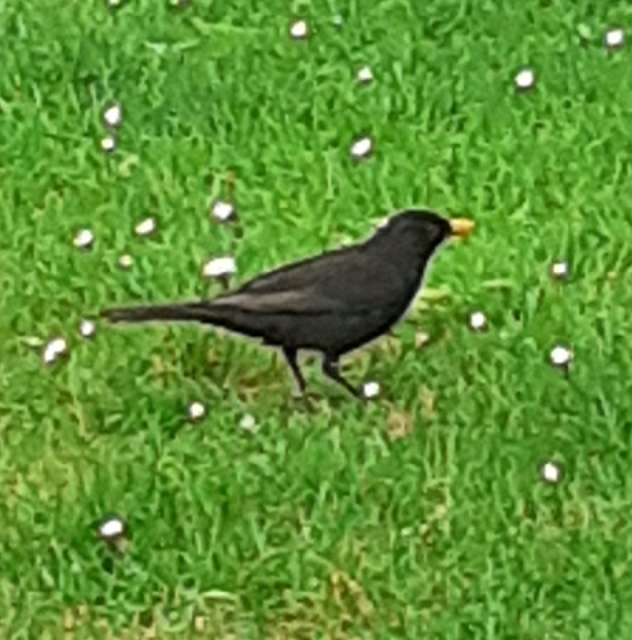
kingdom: Animalia
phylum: Chordata
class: Aves
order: Passeriformes
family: Turdidae
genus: Turdus
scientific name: Turdus merula
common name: Common blackbird
